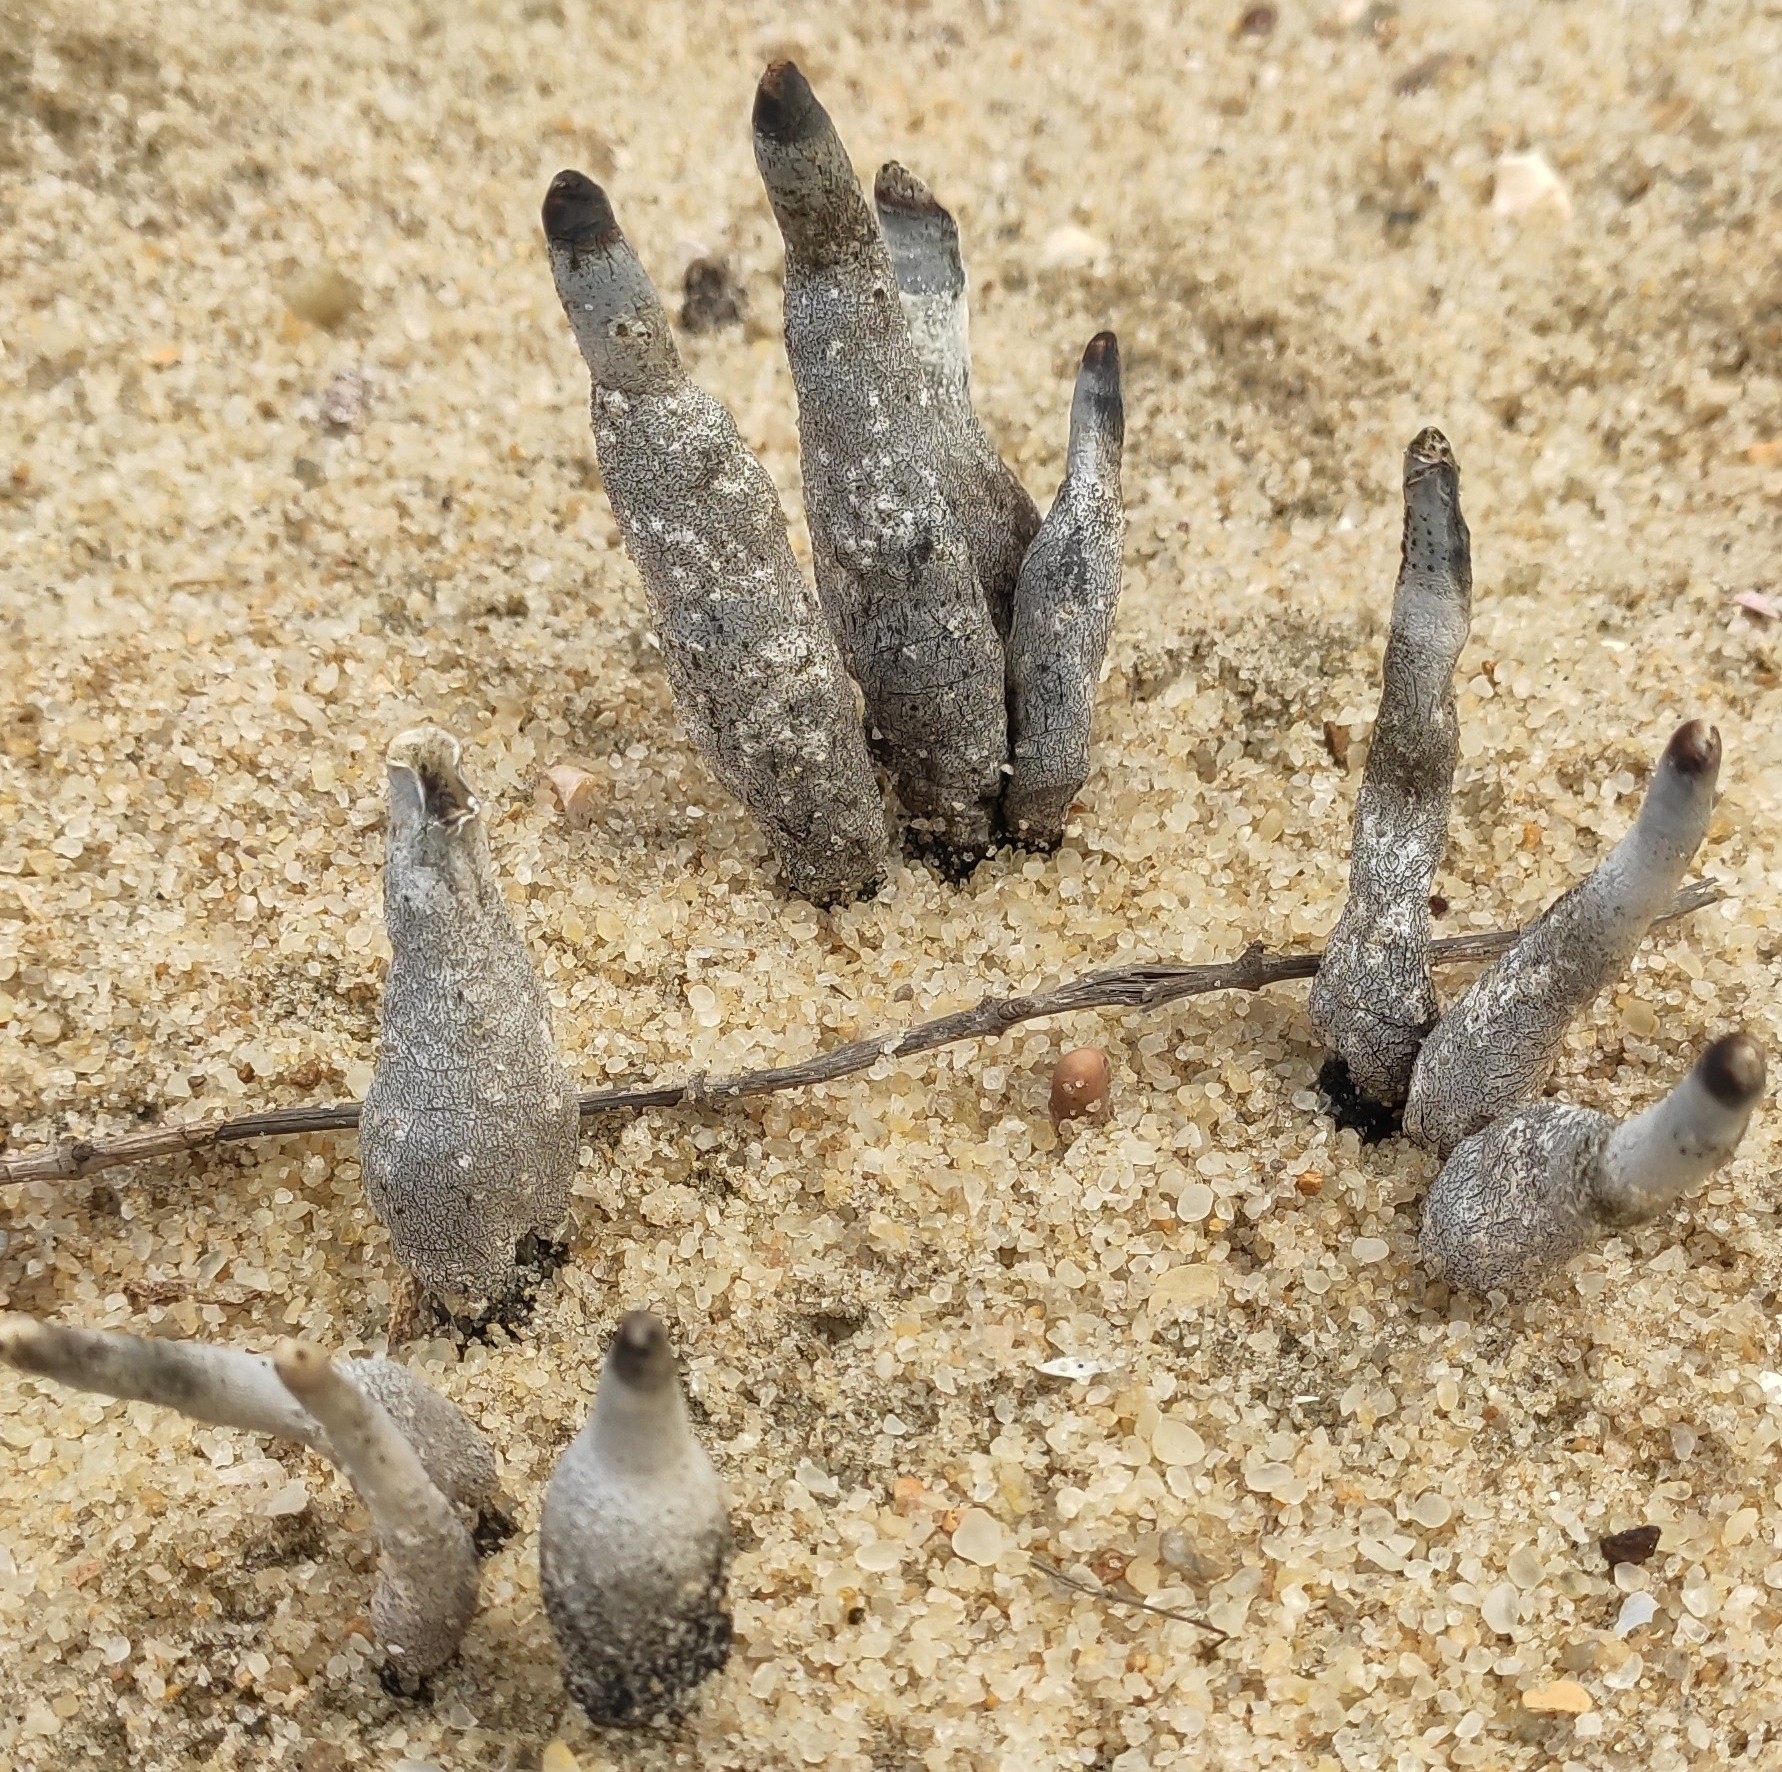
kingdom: Fungi
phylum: Ascomycota
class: Sordariomycetes
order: Xylariales
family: Xylariaceae
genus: Xylaria
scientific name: Xylaria polymorpha
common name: Dead man's fingers
